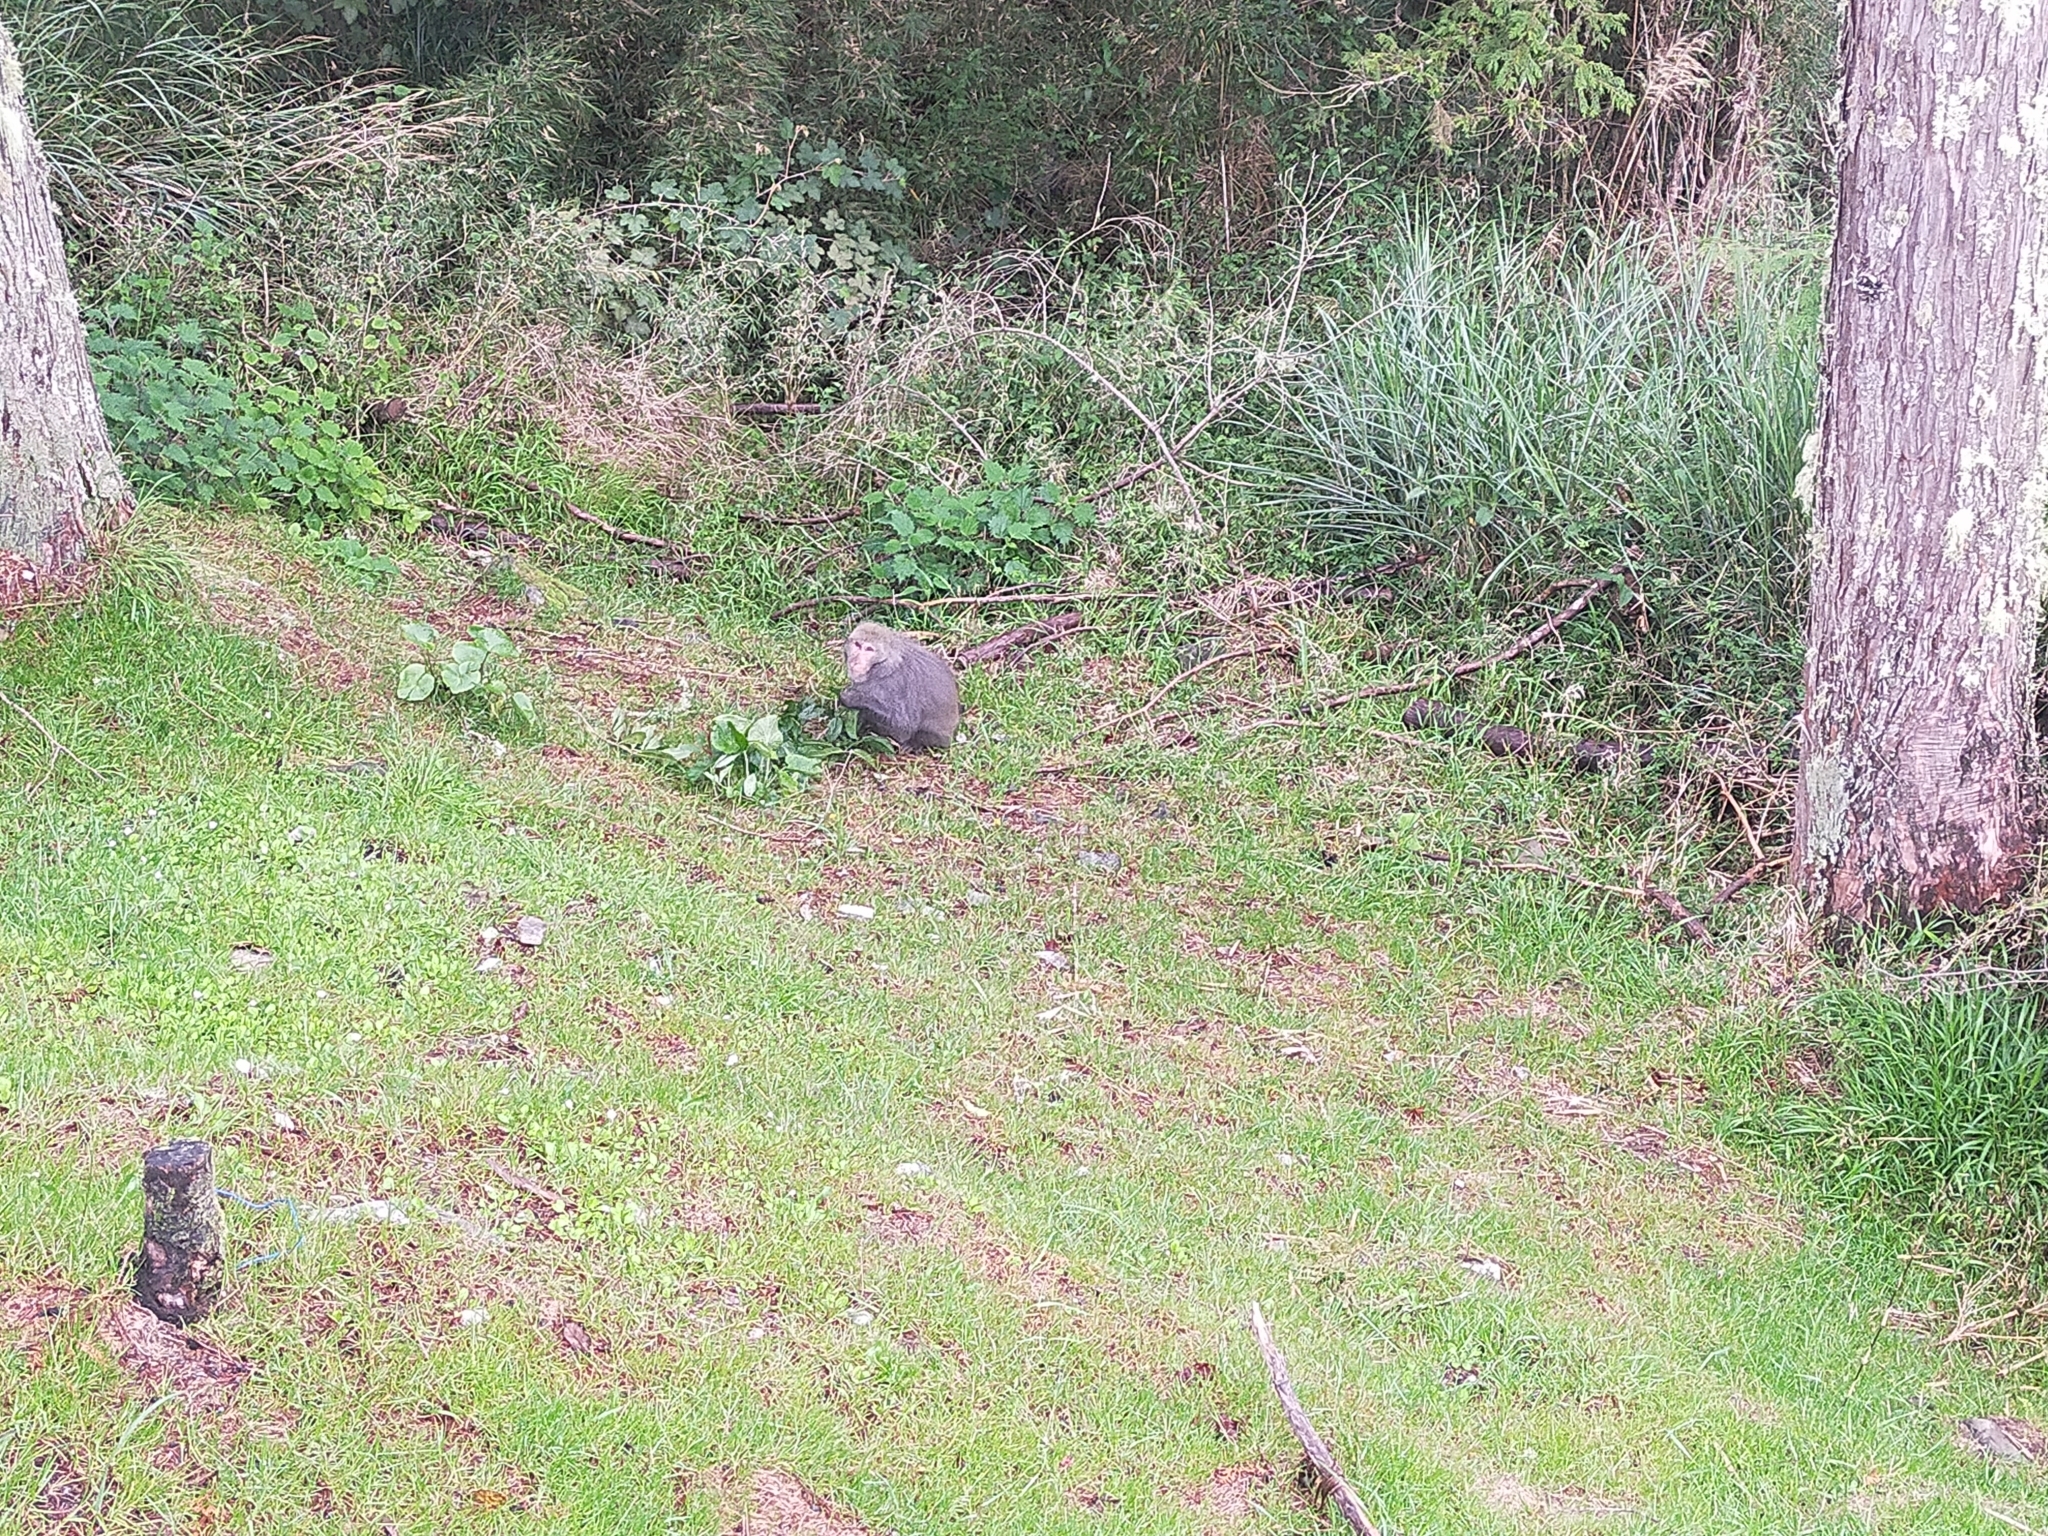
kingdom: Animalia
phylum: Chordata
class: Mammalia
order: Primates
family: Cercopithecidae
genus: Macaca
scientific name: Macaca cyclopis
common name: Formosan rock macaque
